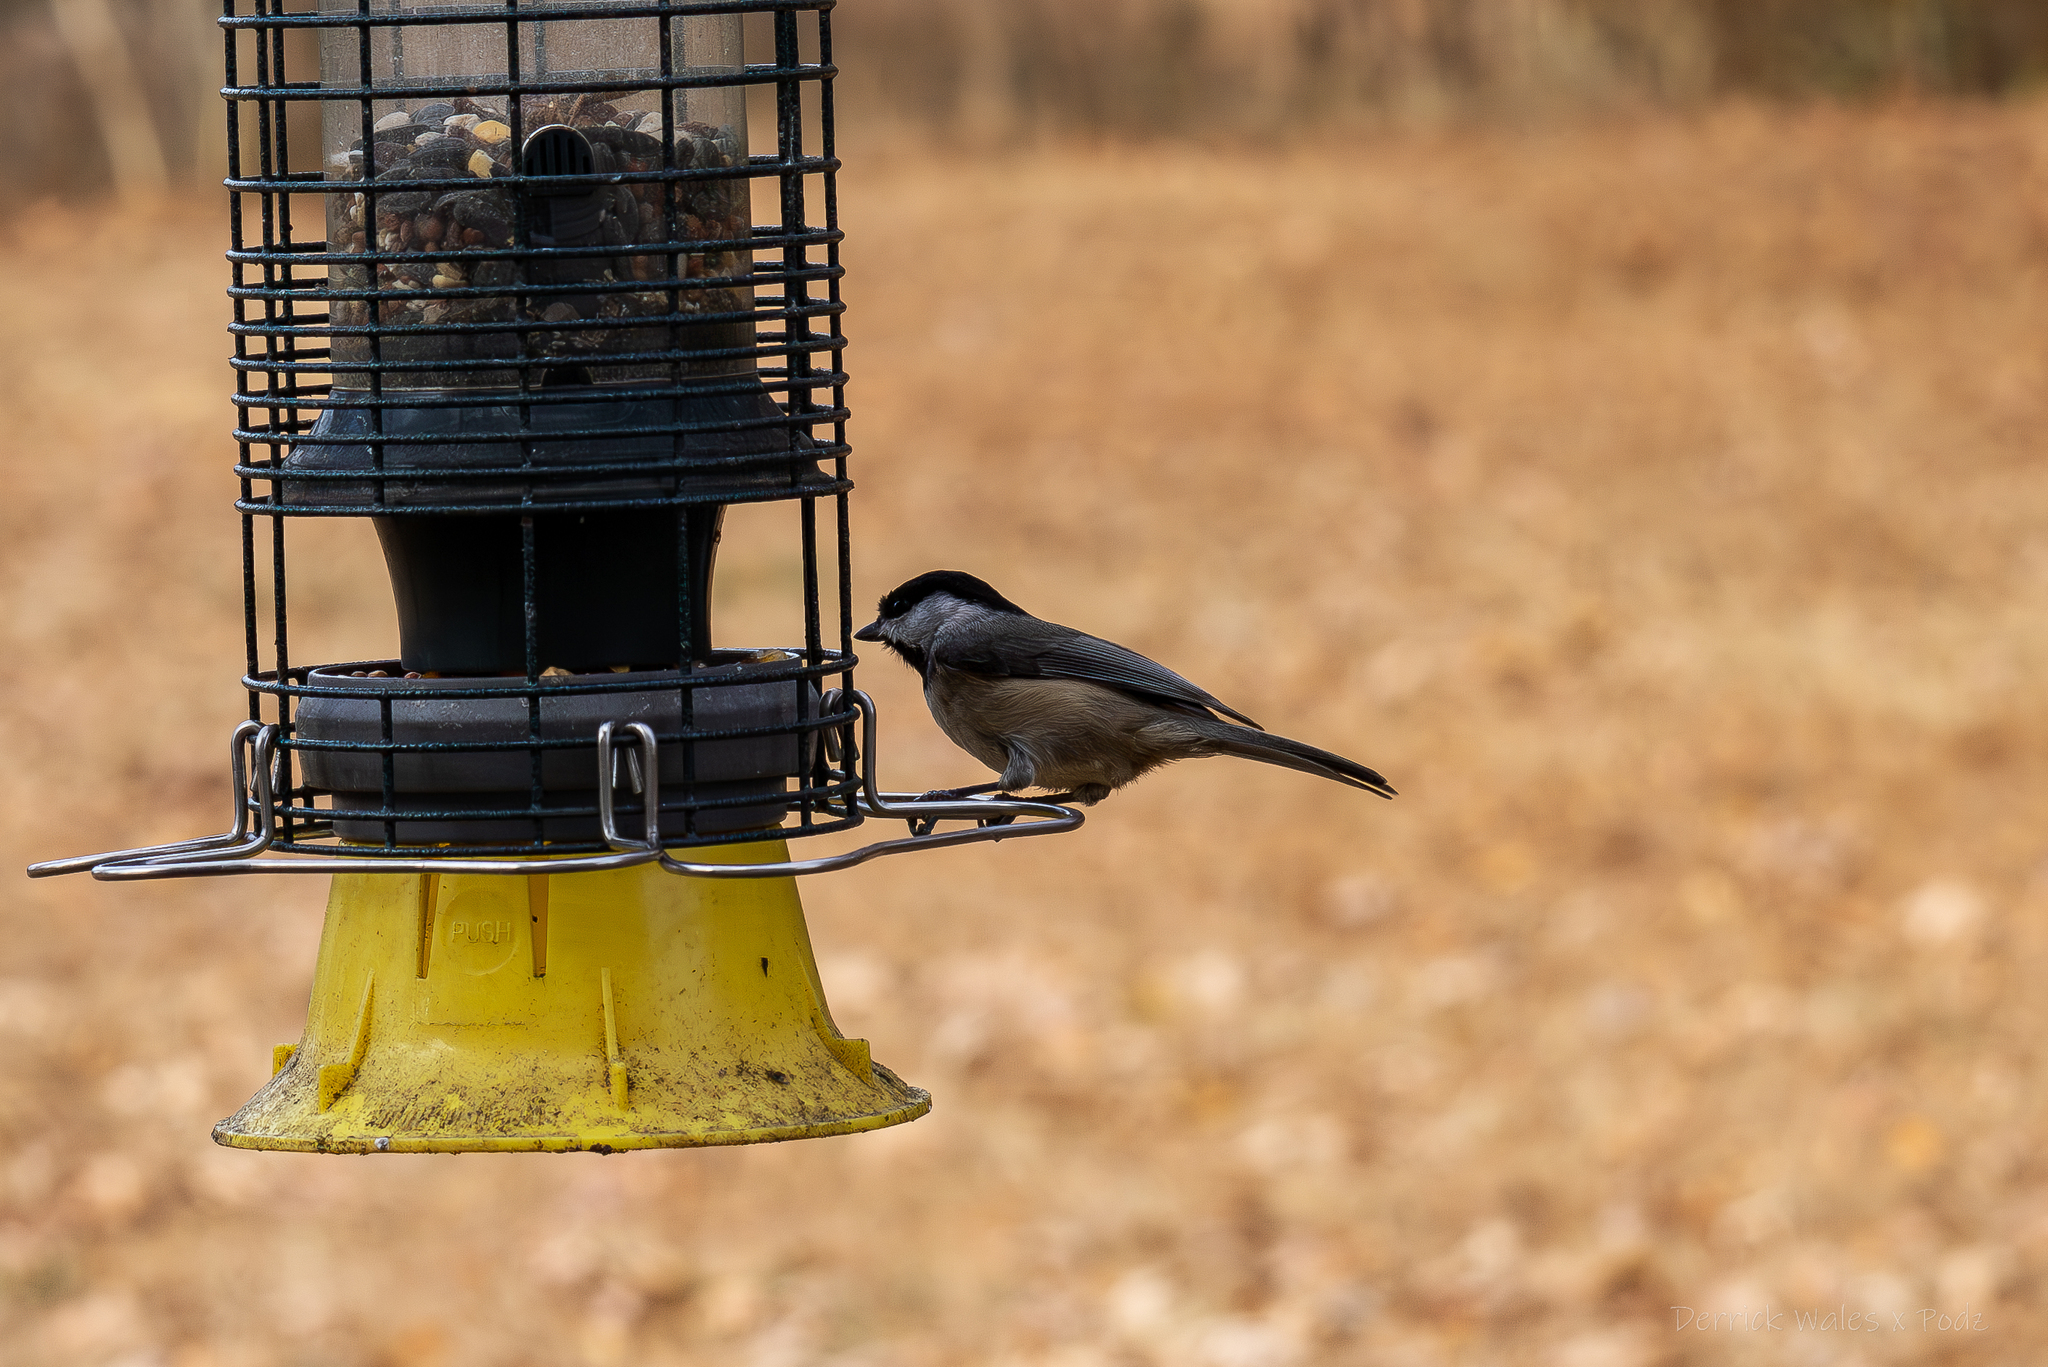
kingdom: Animalia
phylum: Chordata
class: Aves
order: Passeriformes
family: Paridae
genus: Poecile
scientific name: Poecile carolinensis
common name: Carolina chickadee
